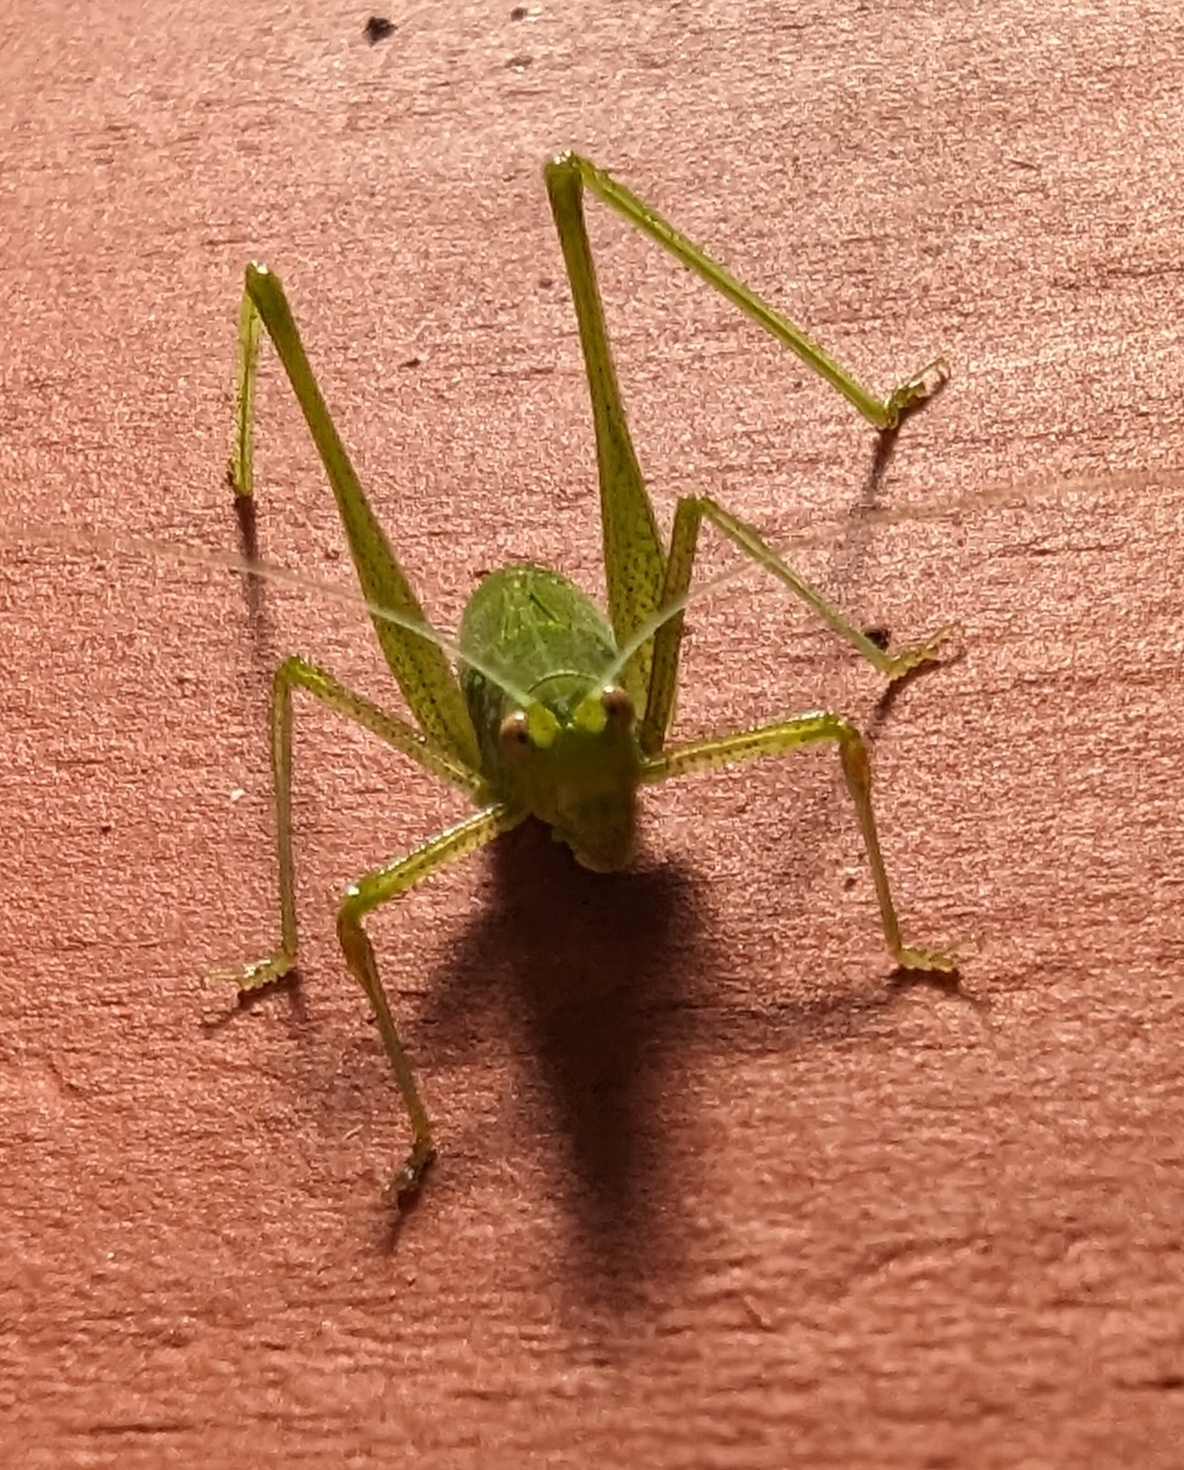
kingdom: Animalia
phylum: Arthropoda
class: Insecta
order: Orthoptera
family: Tettigoniidae
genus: Phaneroptera
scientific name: Phaneroptera nana
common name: Southern sickle bush-cricket
